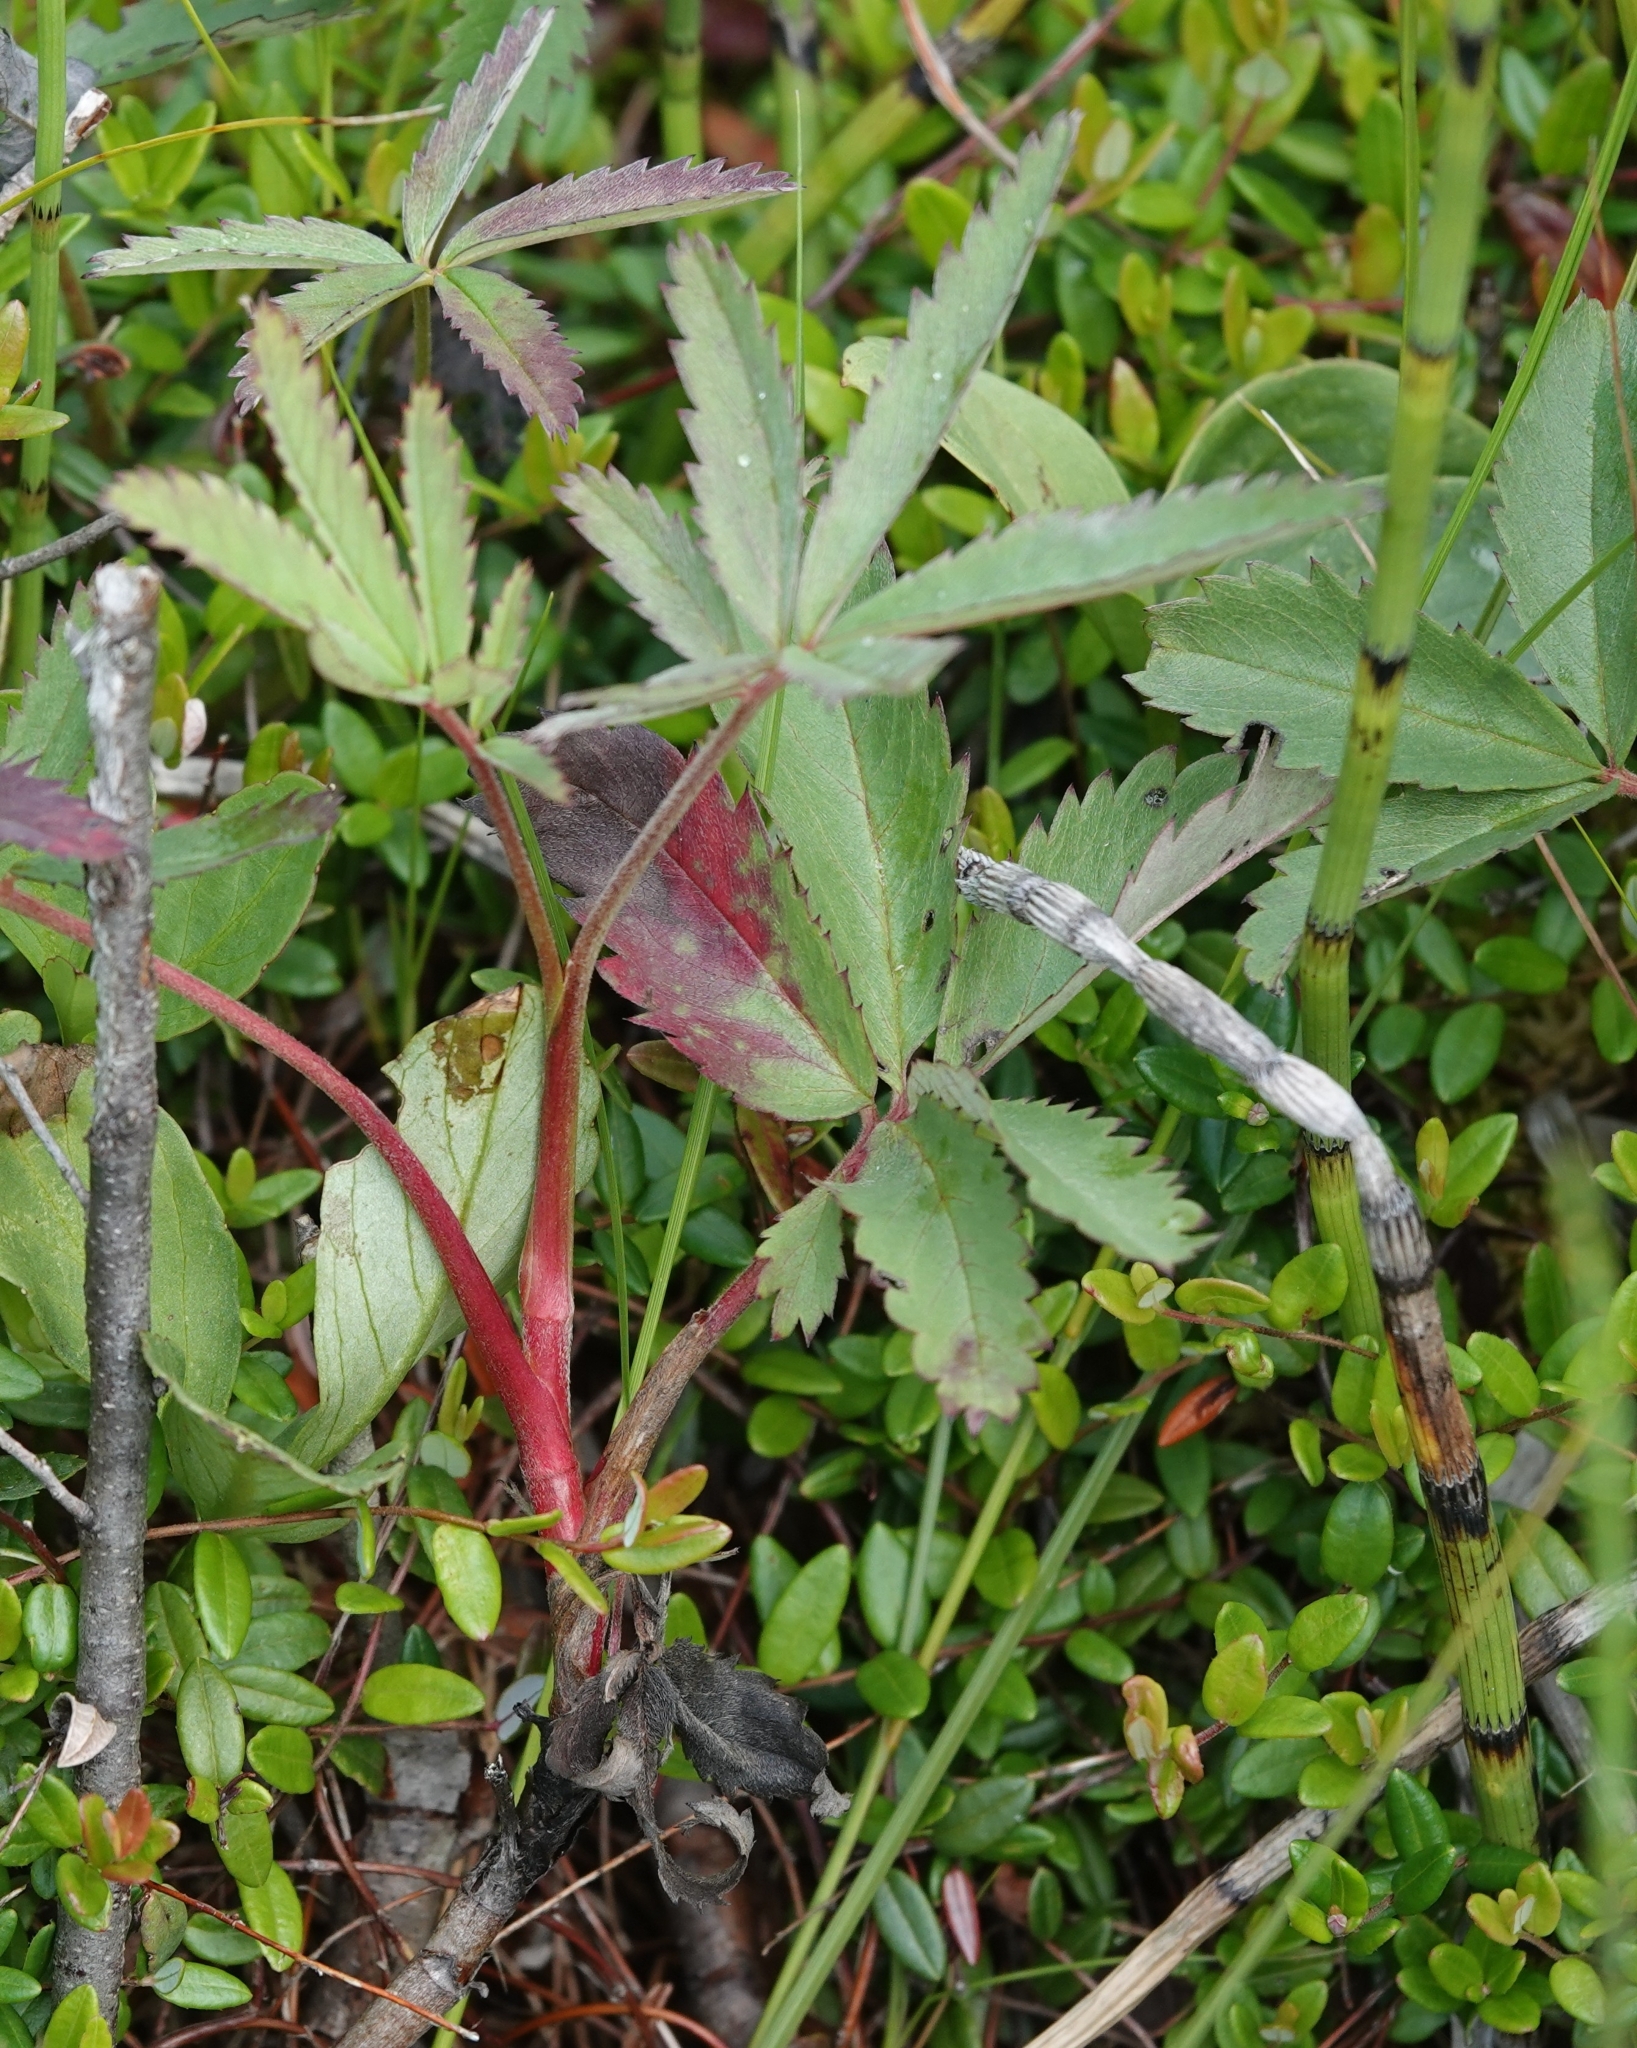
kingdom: Plantae
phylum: Tracheophyta
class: Magnoliopsida
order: Rosales
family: Rosaceae
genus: Comarum
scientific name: Comarum palustre
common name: Marsh cinquefoil
